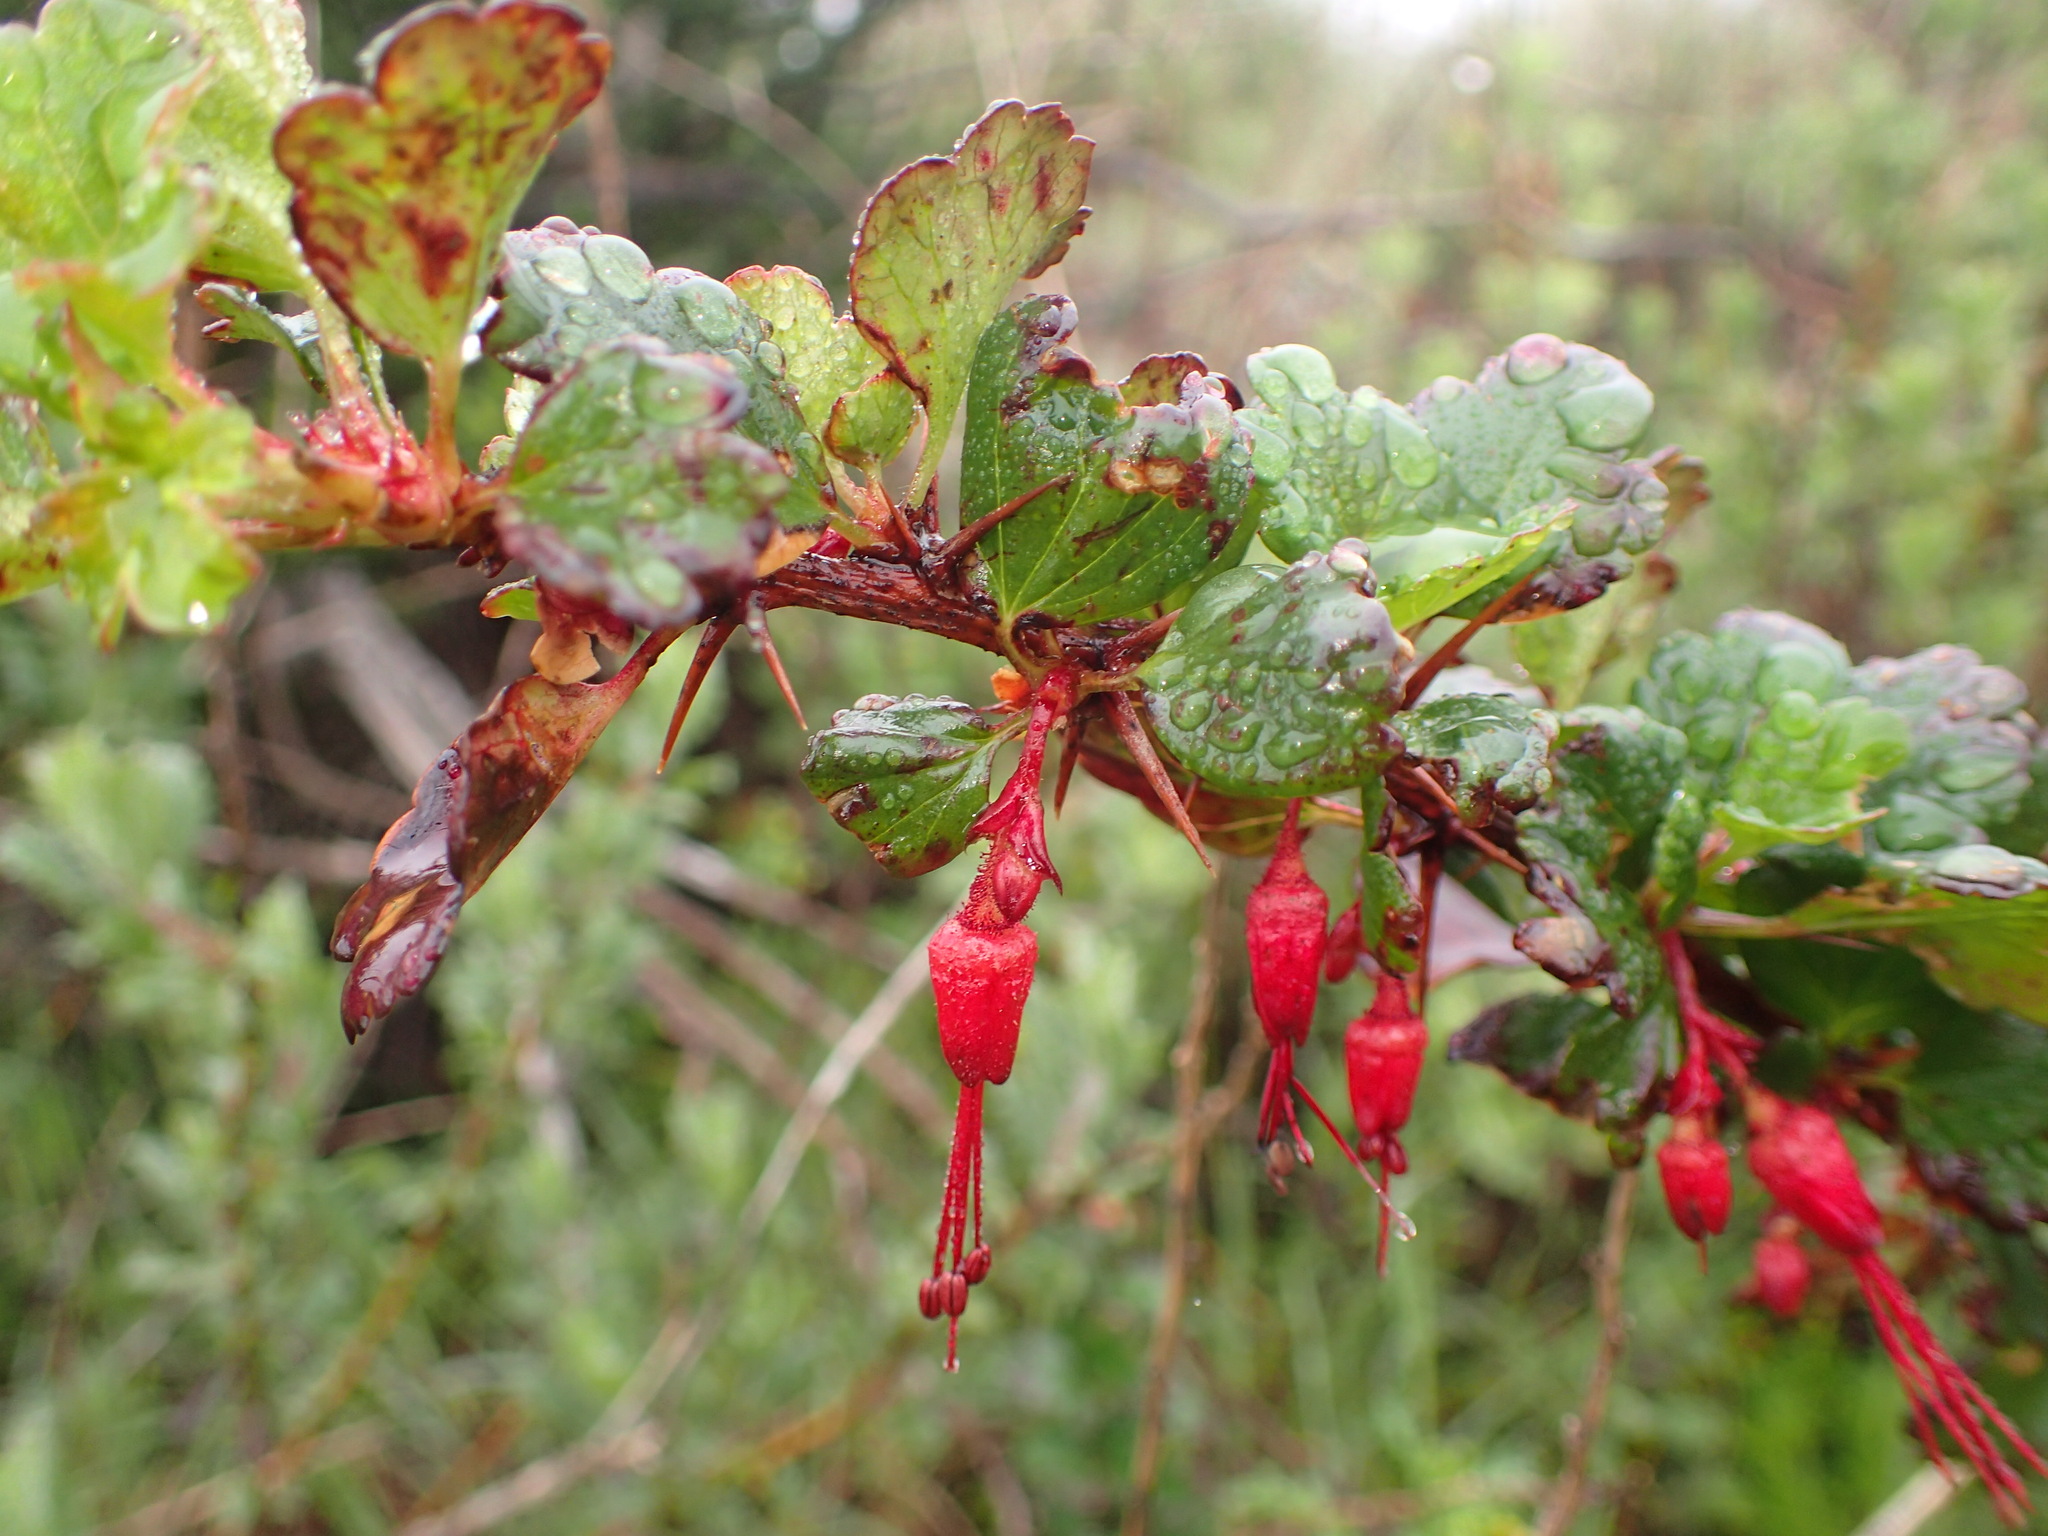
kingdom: Plantae
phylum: Tracheophyta
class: Magnoliopsida
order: Saxifragales
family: Grossulariaceae
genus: Ribes
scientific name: Ribes speciosum
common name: Fuchsia-flower gooseberry
